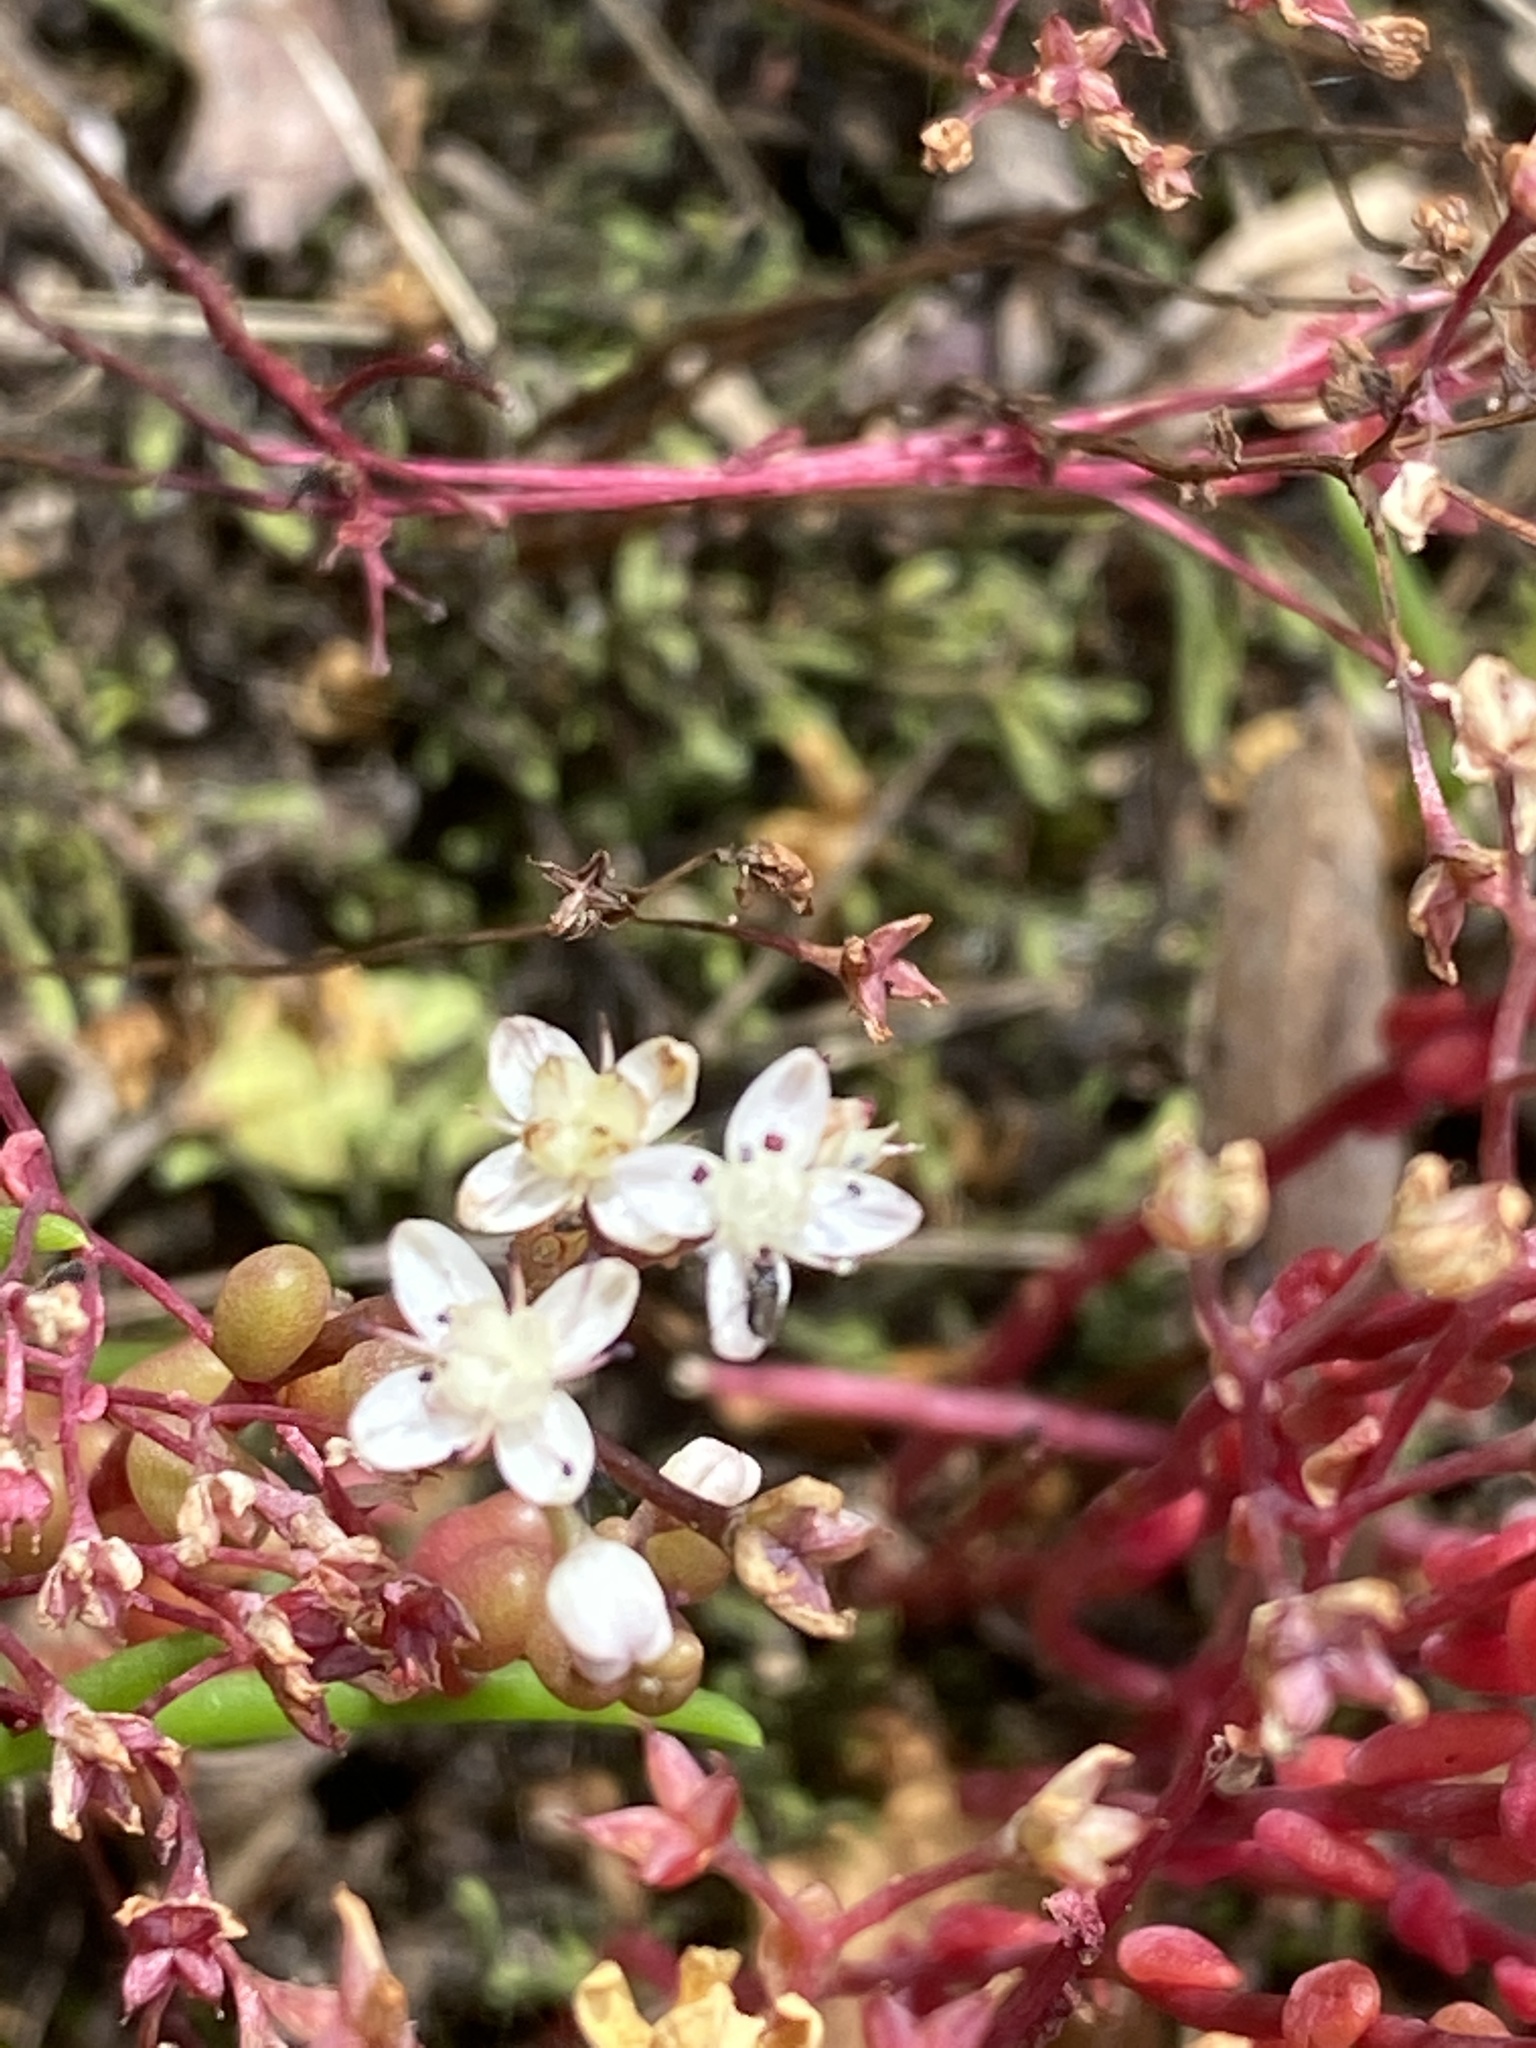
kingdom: Plantae
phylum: Tracheophyta
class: Magnoliopsida
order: Saxifragales
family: Crassulaceae
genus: Sedum
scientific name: Sedum smallii
